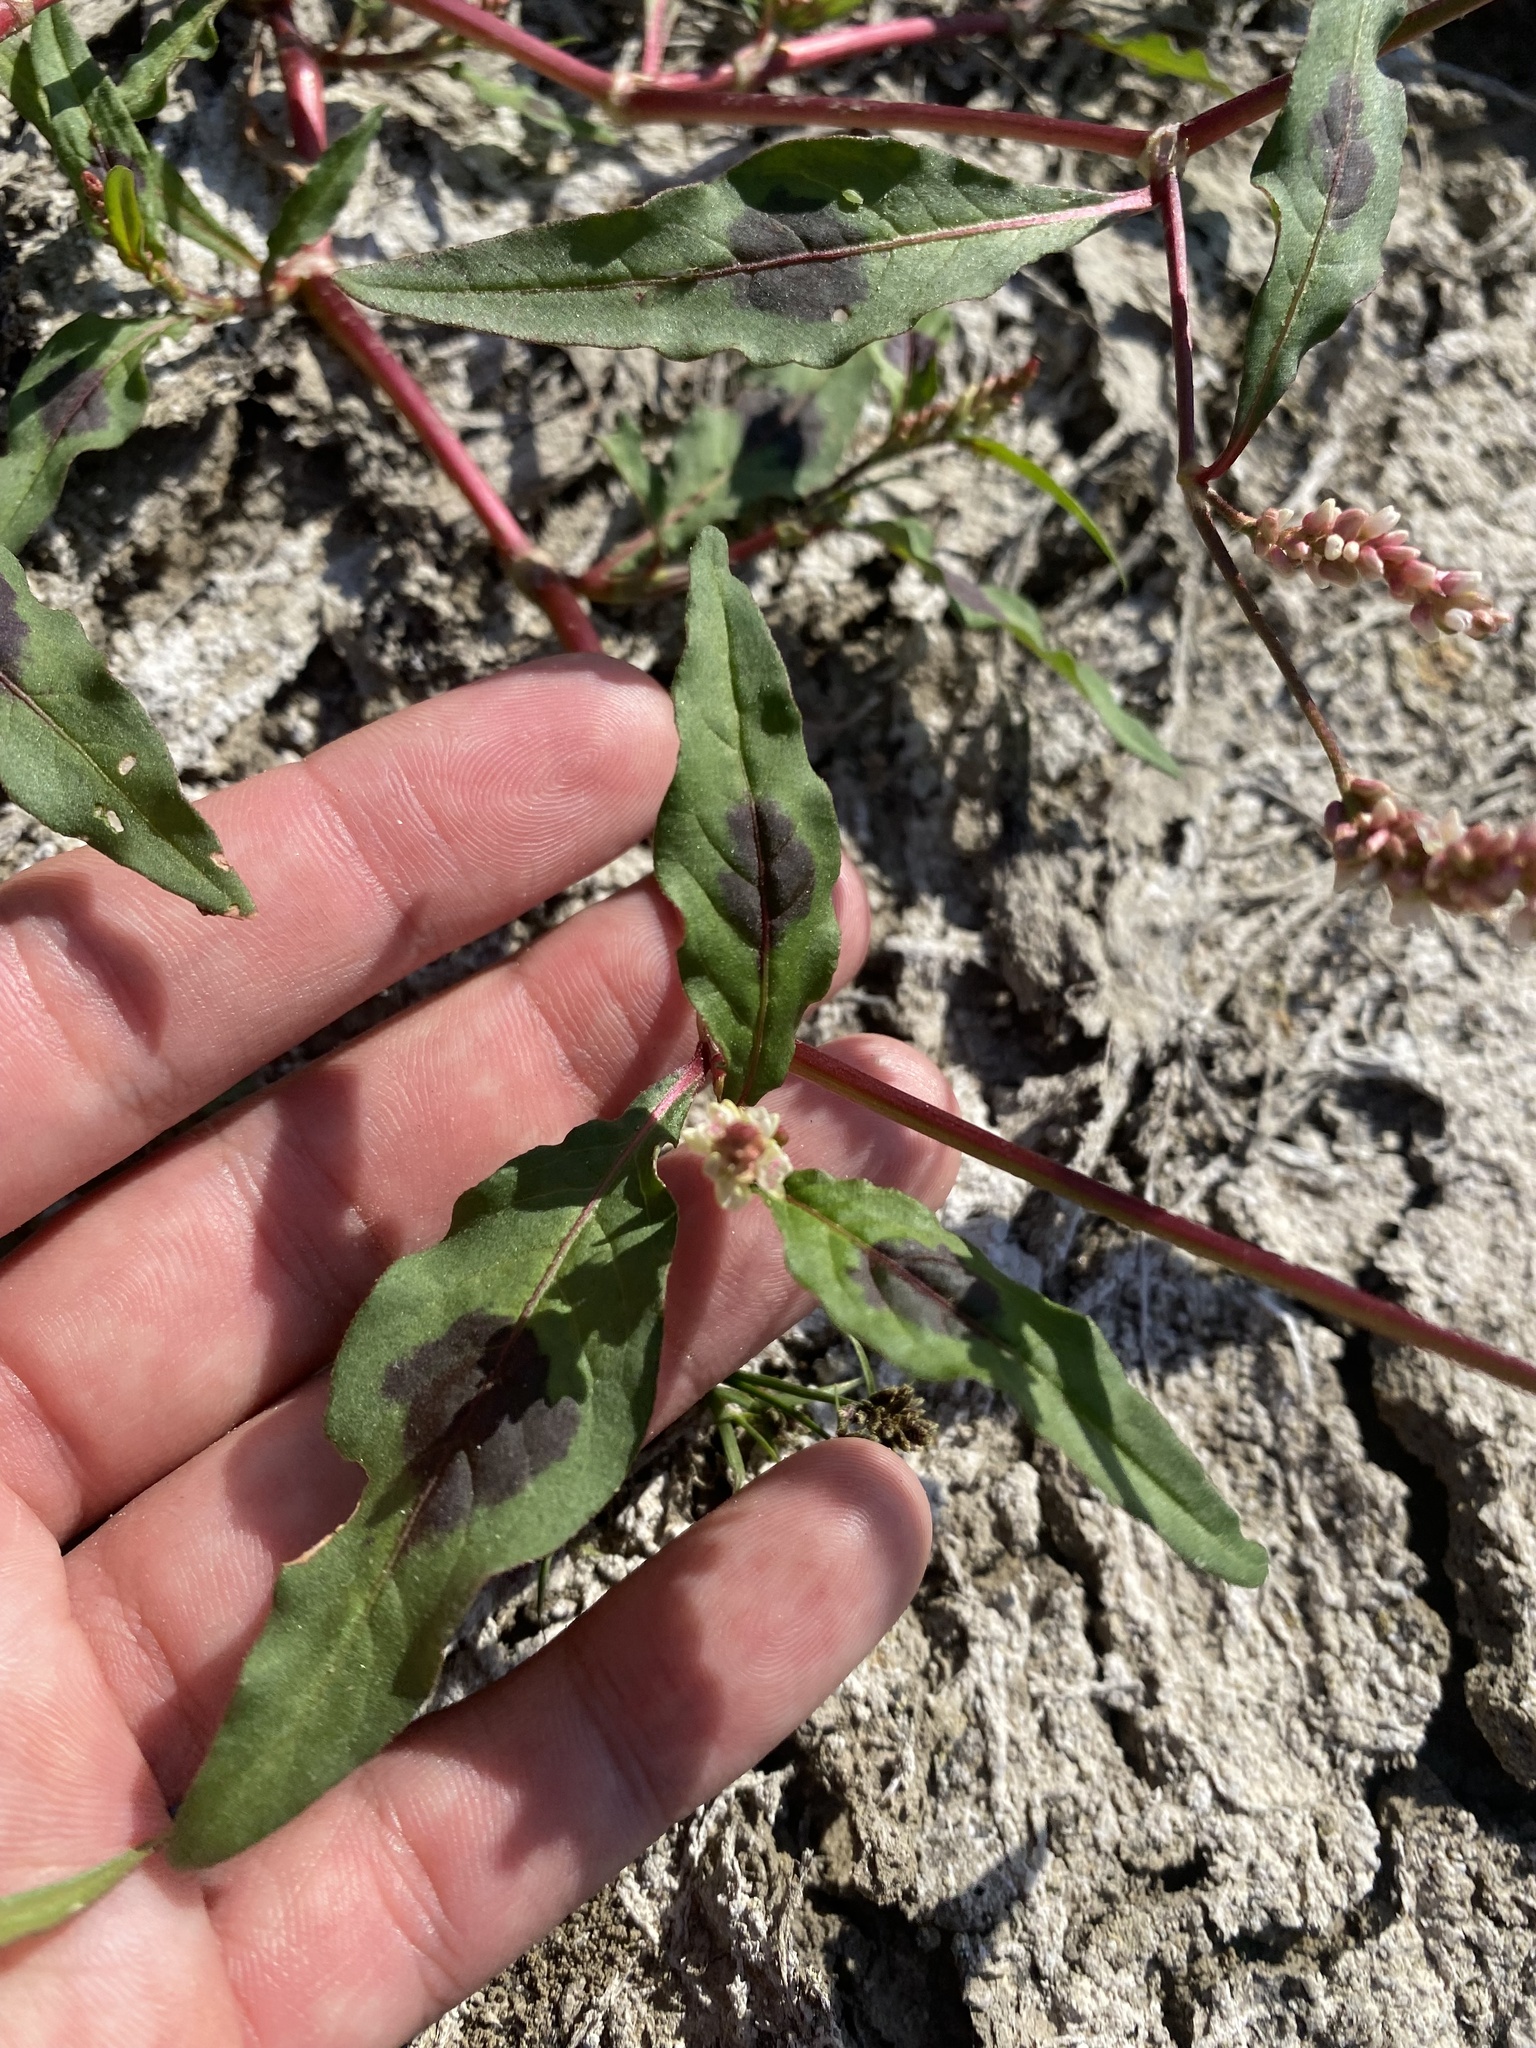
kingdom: Plantae
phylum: Tracheophyta
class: Magnoliopsida
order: Caryophyllales
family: Polygonaceae
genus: Persicaria
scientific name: Persicaria lapathifolia
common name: Curlytop knotweed
